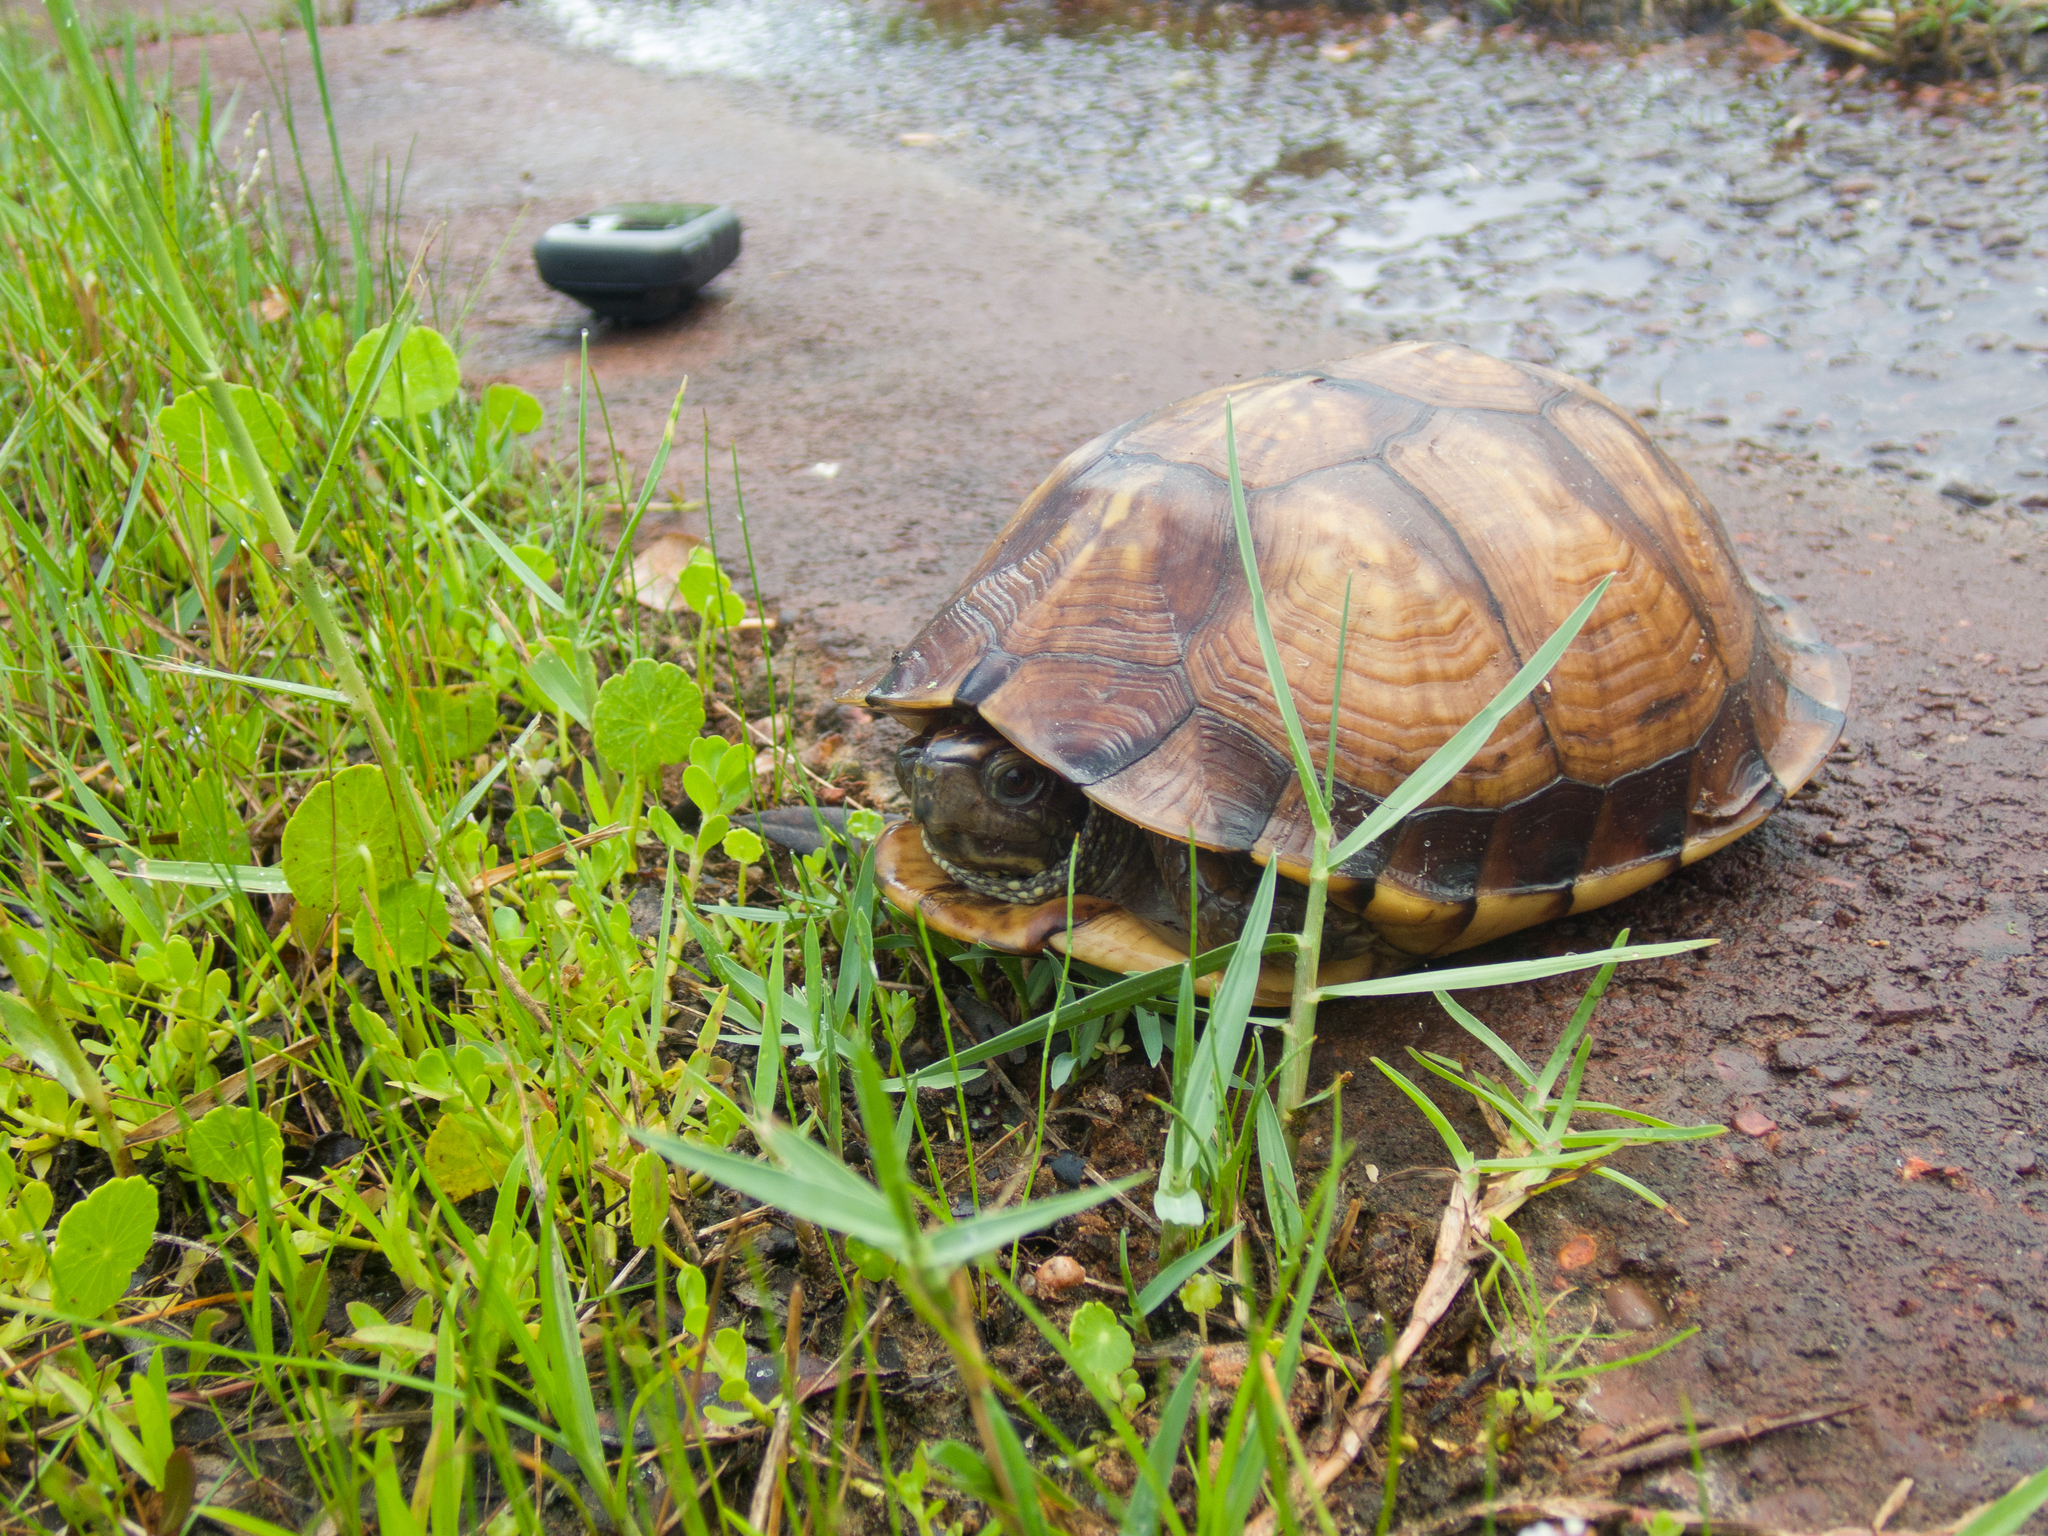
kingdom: Animalia
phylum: Chordata
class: Testudines
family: Emydidae
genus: Terrapene
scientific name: Terrapene carolina
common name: Common box turtle
